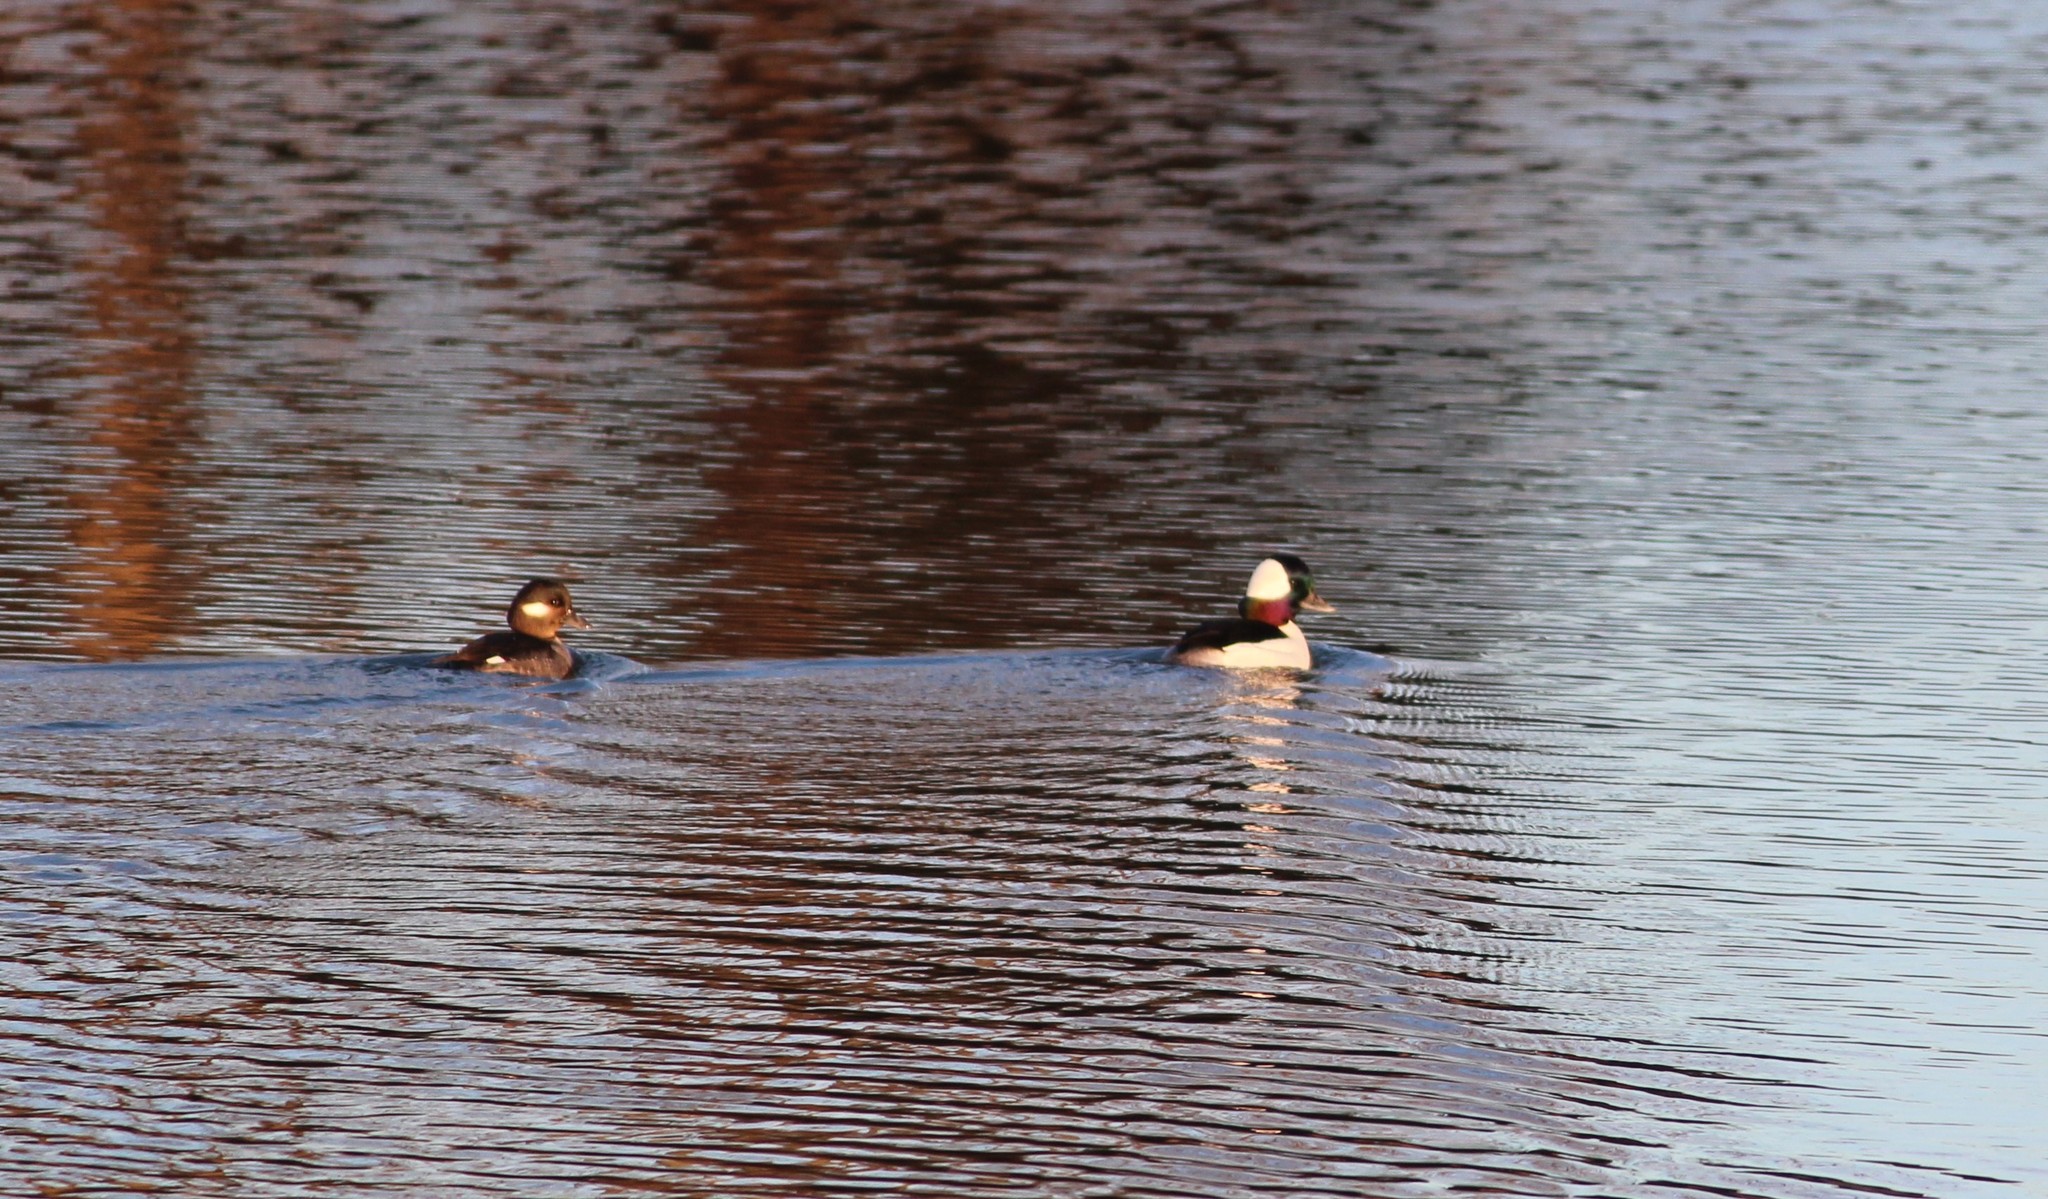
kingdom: Animalia
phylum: Chordata
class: Aves
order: Anseriformes
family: Anatidae
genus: Bucephala
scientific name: Bucephala albeola
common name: Bufflehead
